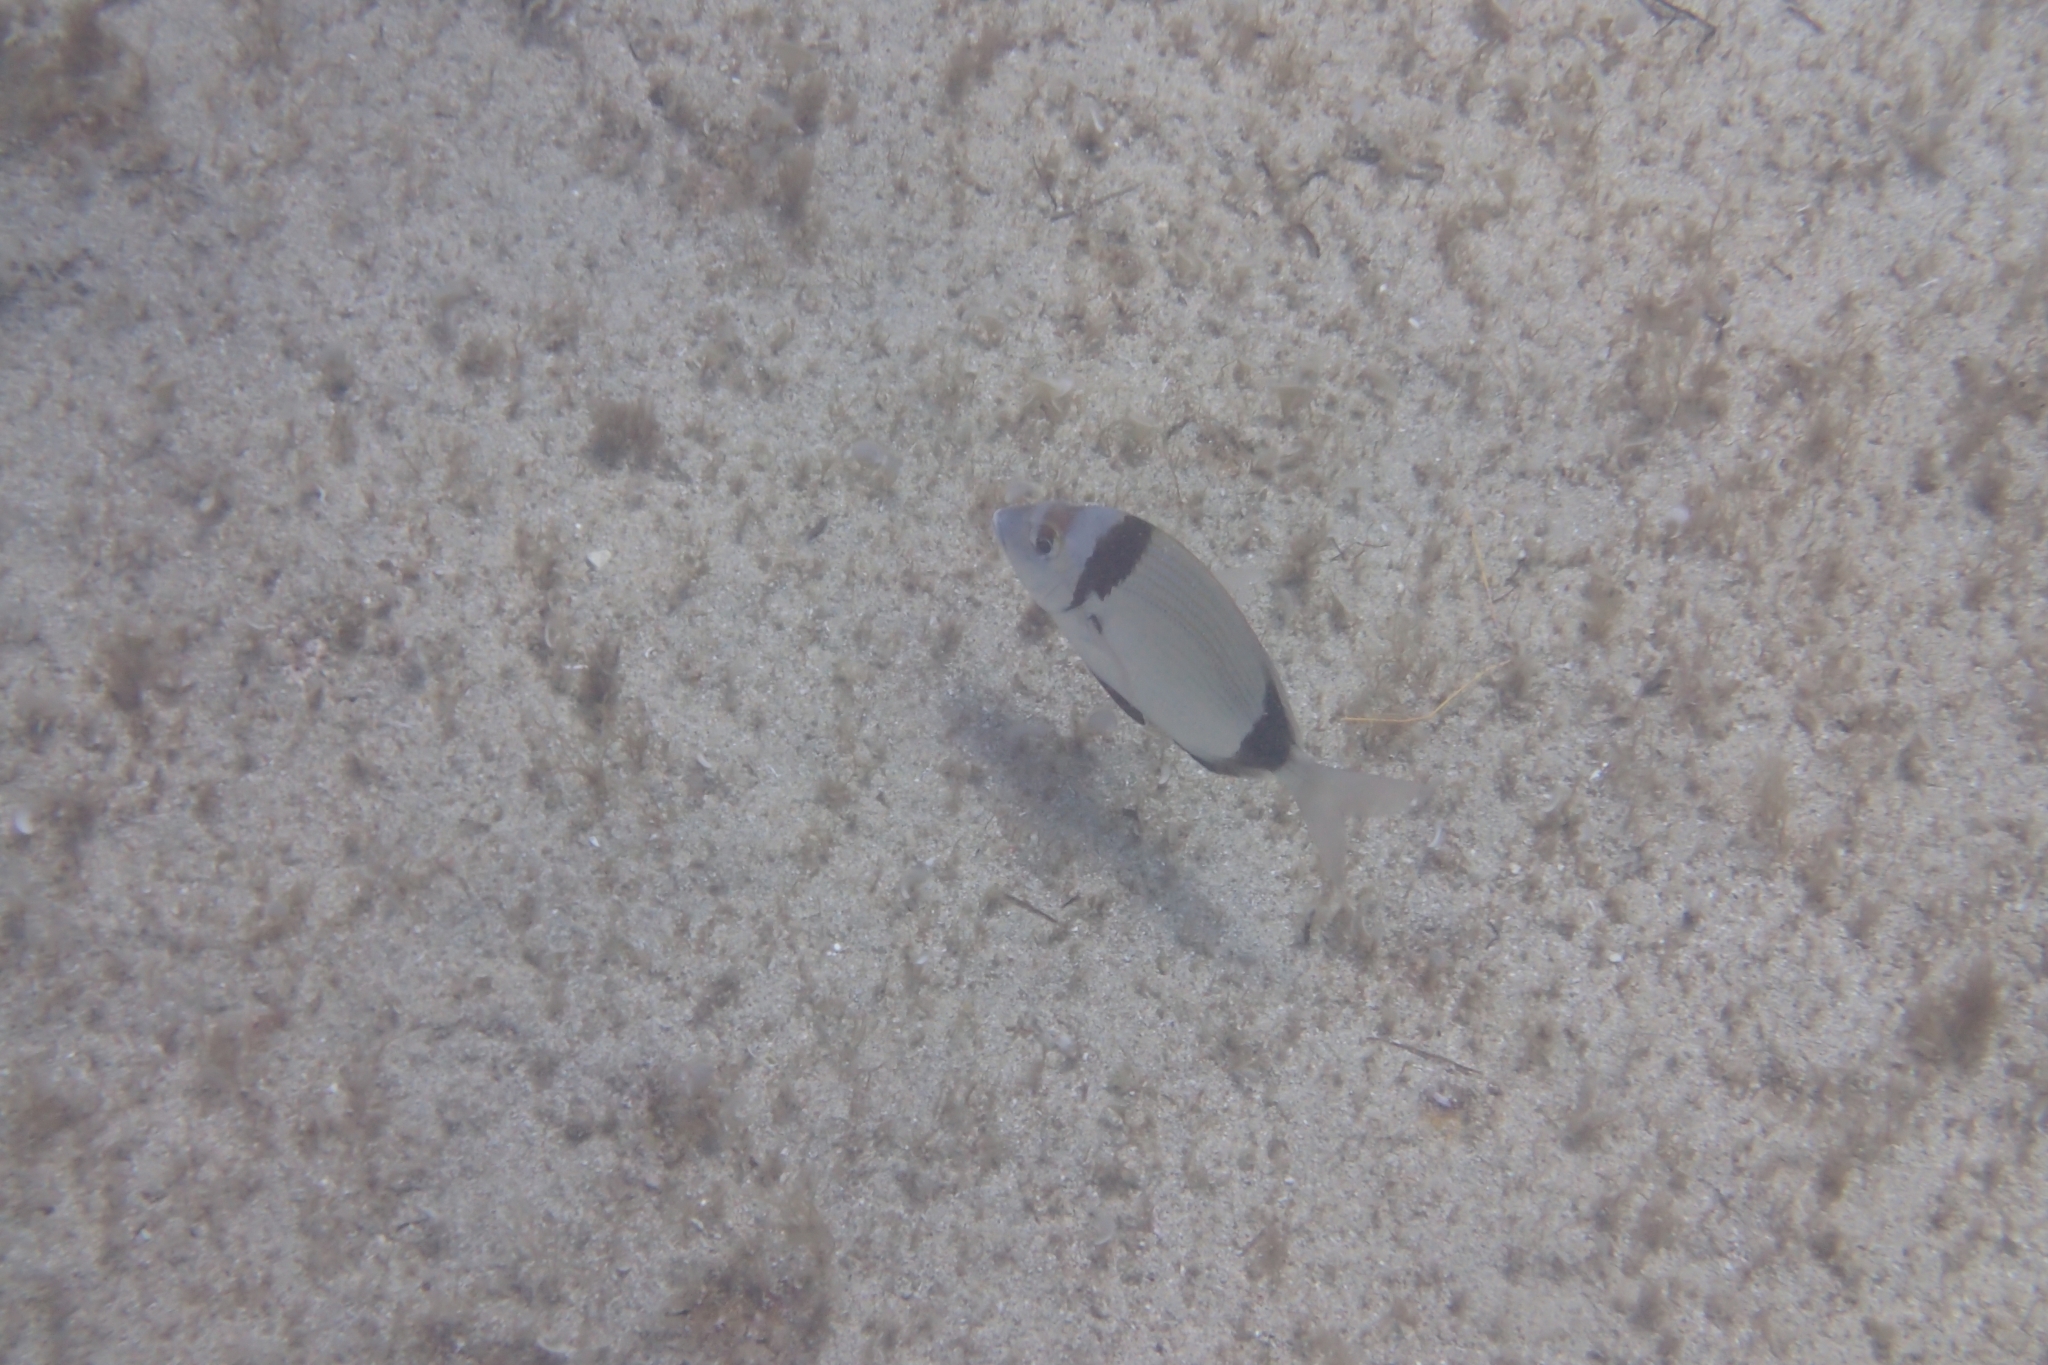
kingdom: Animalia
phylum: Chordata
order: Perciformes
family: Sparidae
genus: Diplodus
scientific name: Diplodus vulgaris
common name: Common two-banded seabream
